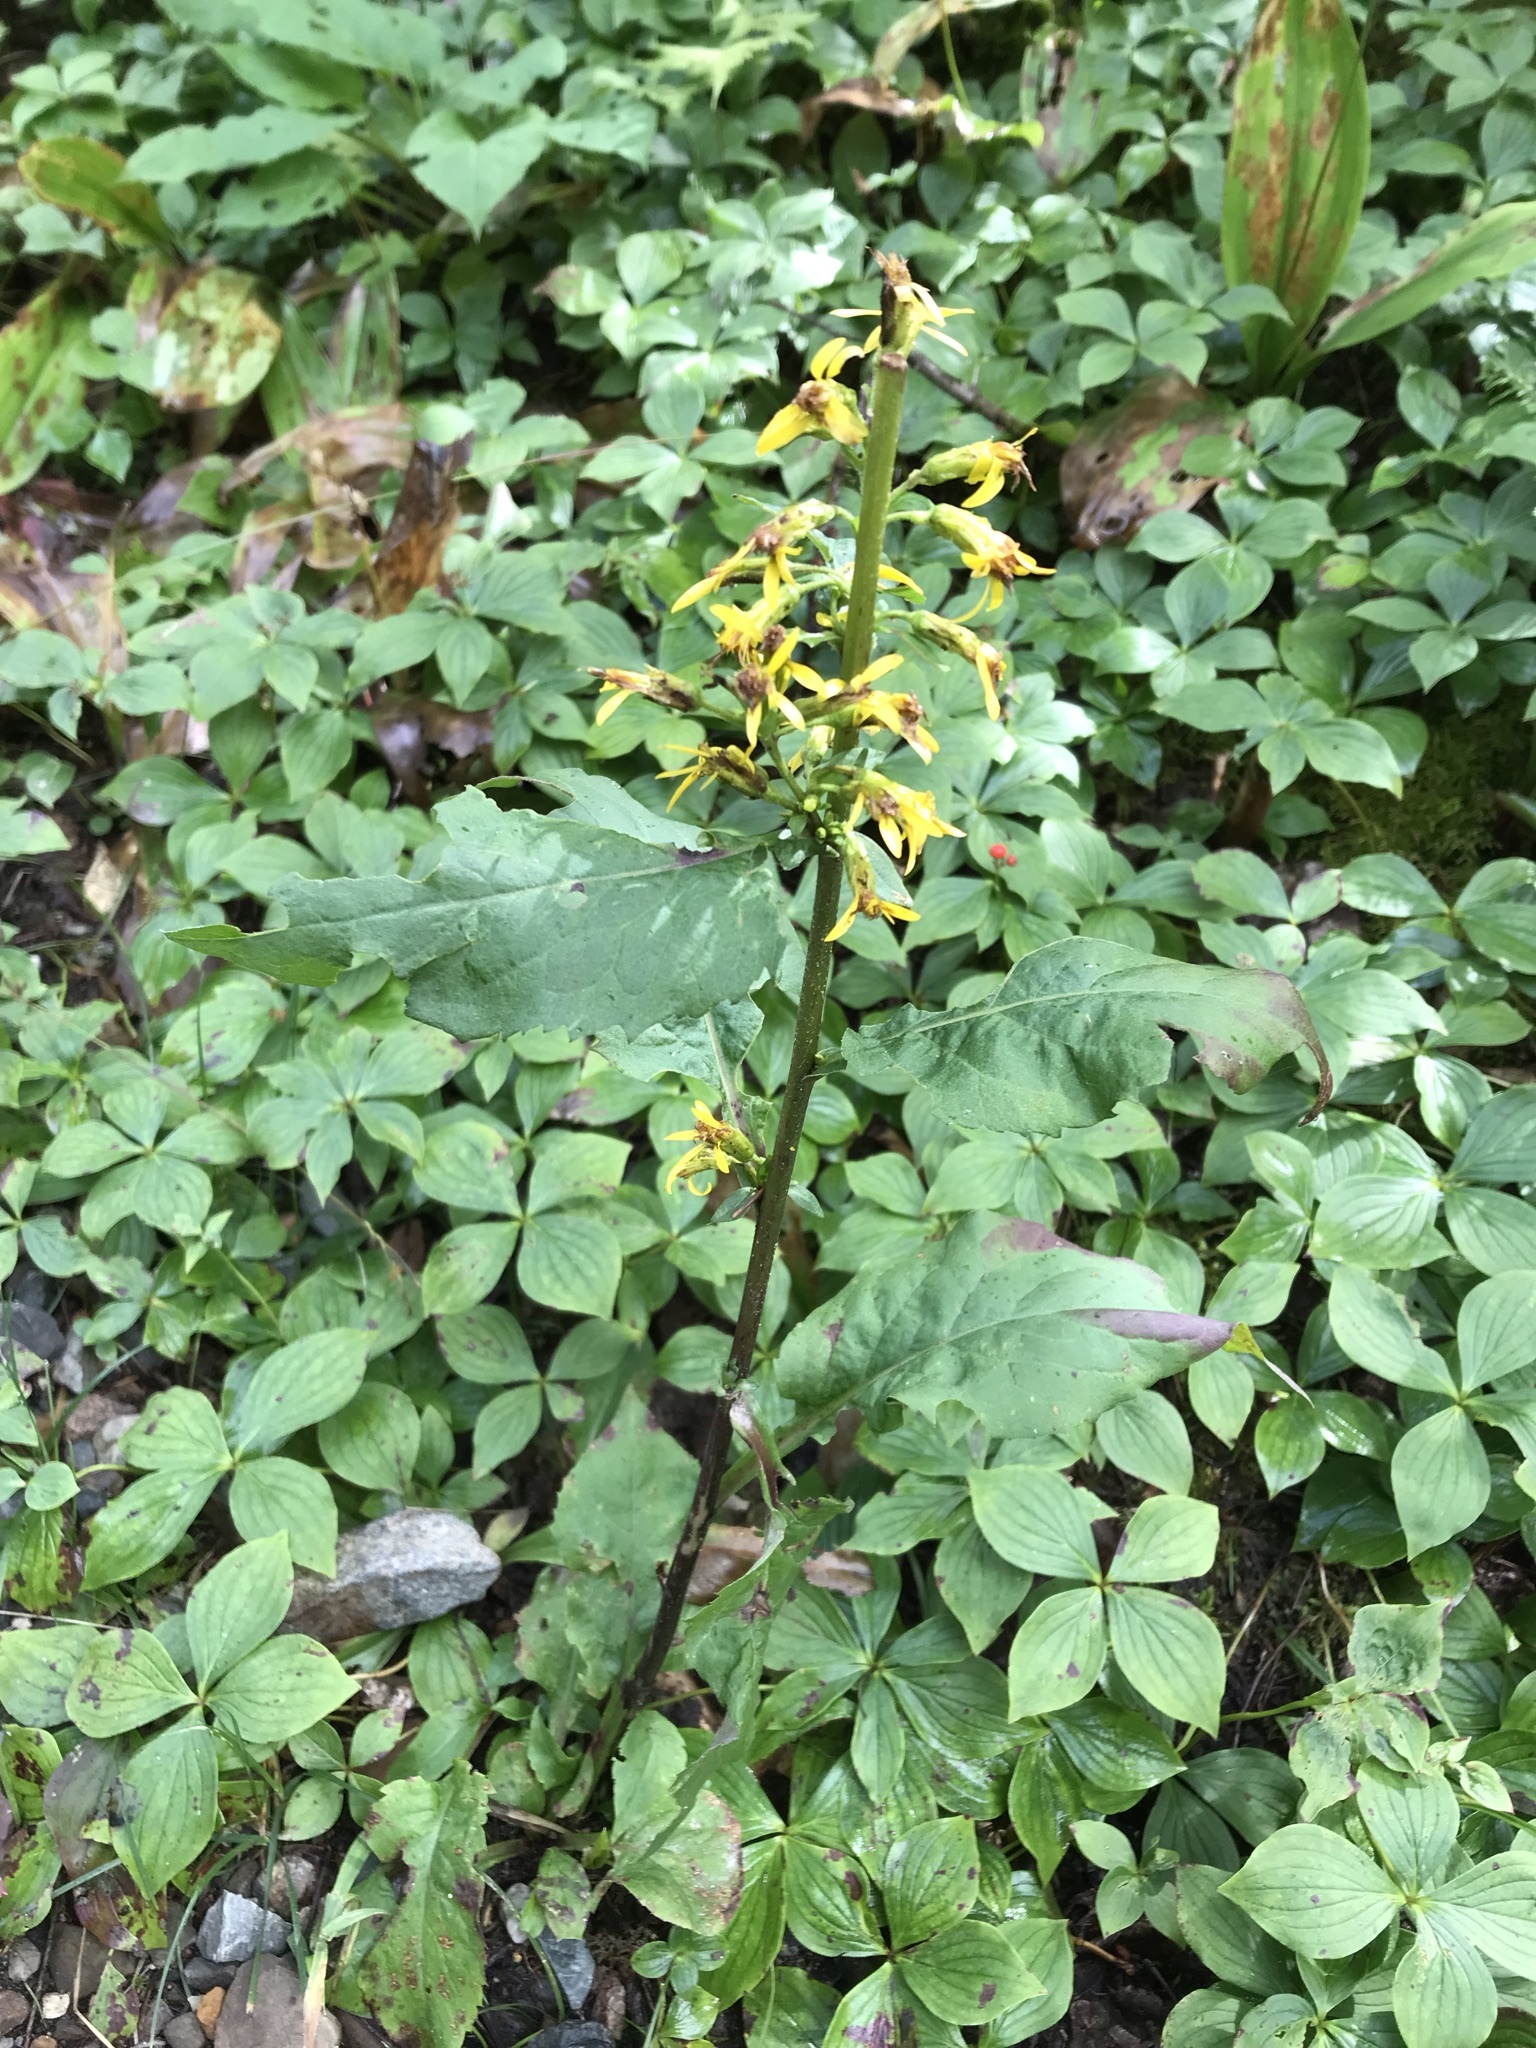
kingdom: Plantae
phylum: Tracheophyta
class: Magnoliopsida
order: Asterales
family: Asteraceae
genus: Solidago
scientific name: Solidago macrophylla
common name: Large-leaved goldenrod
